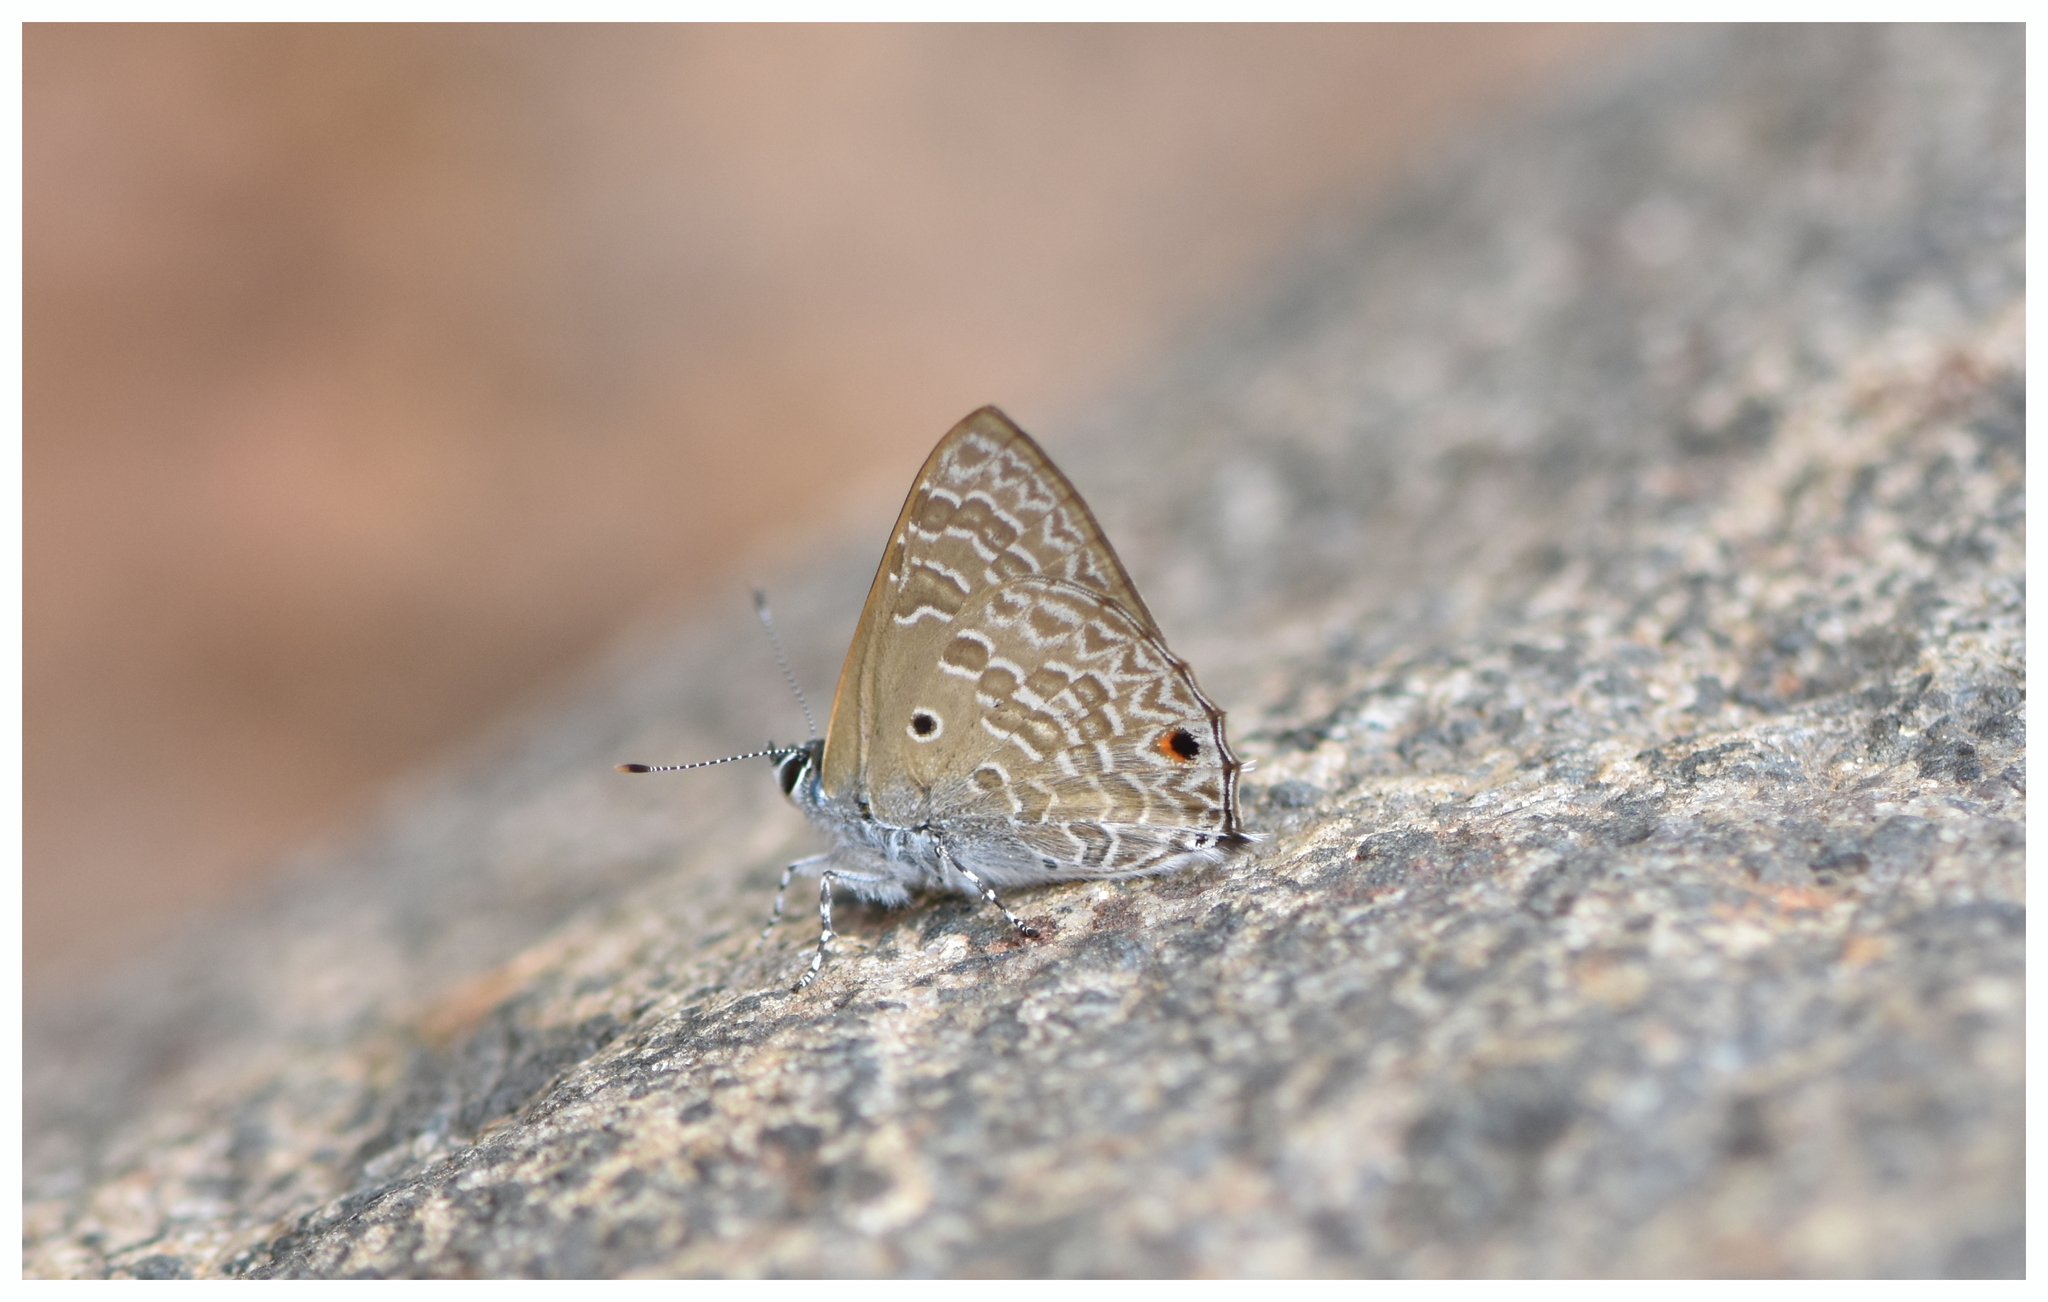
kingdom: Animalia
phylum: Arthropoda
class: Insecta
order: Lepidoptera
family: Lycaenidae
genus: Anthene
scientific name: Anthene lycaenina
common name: Pointed ciliate blue
